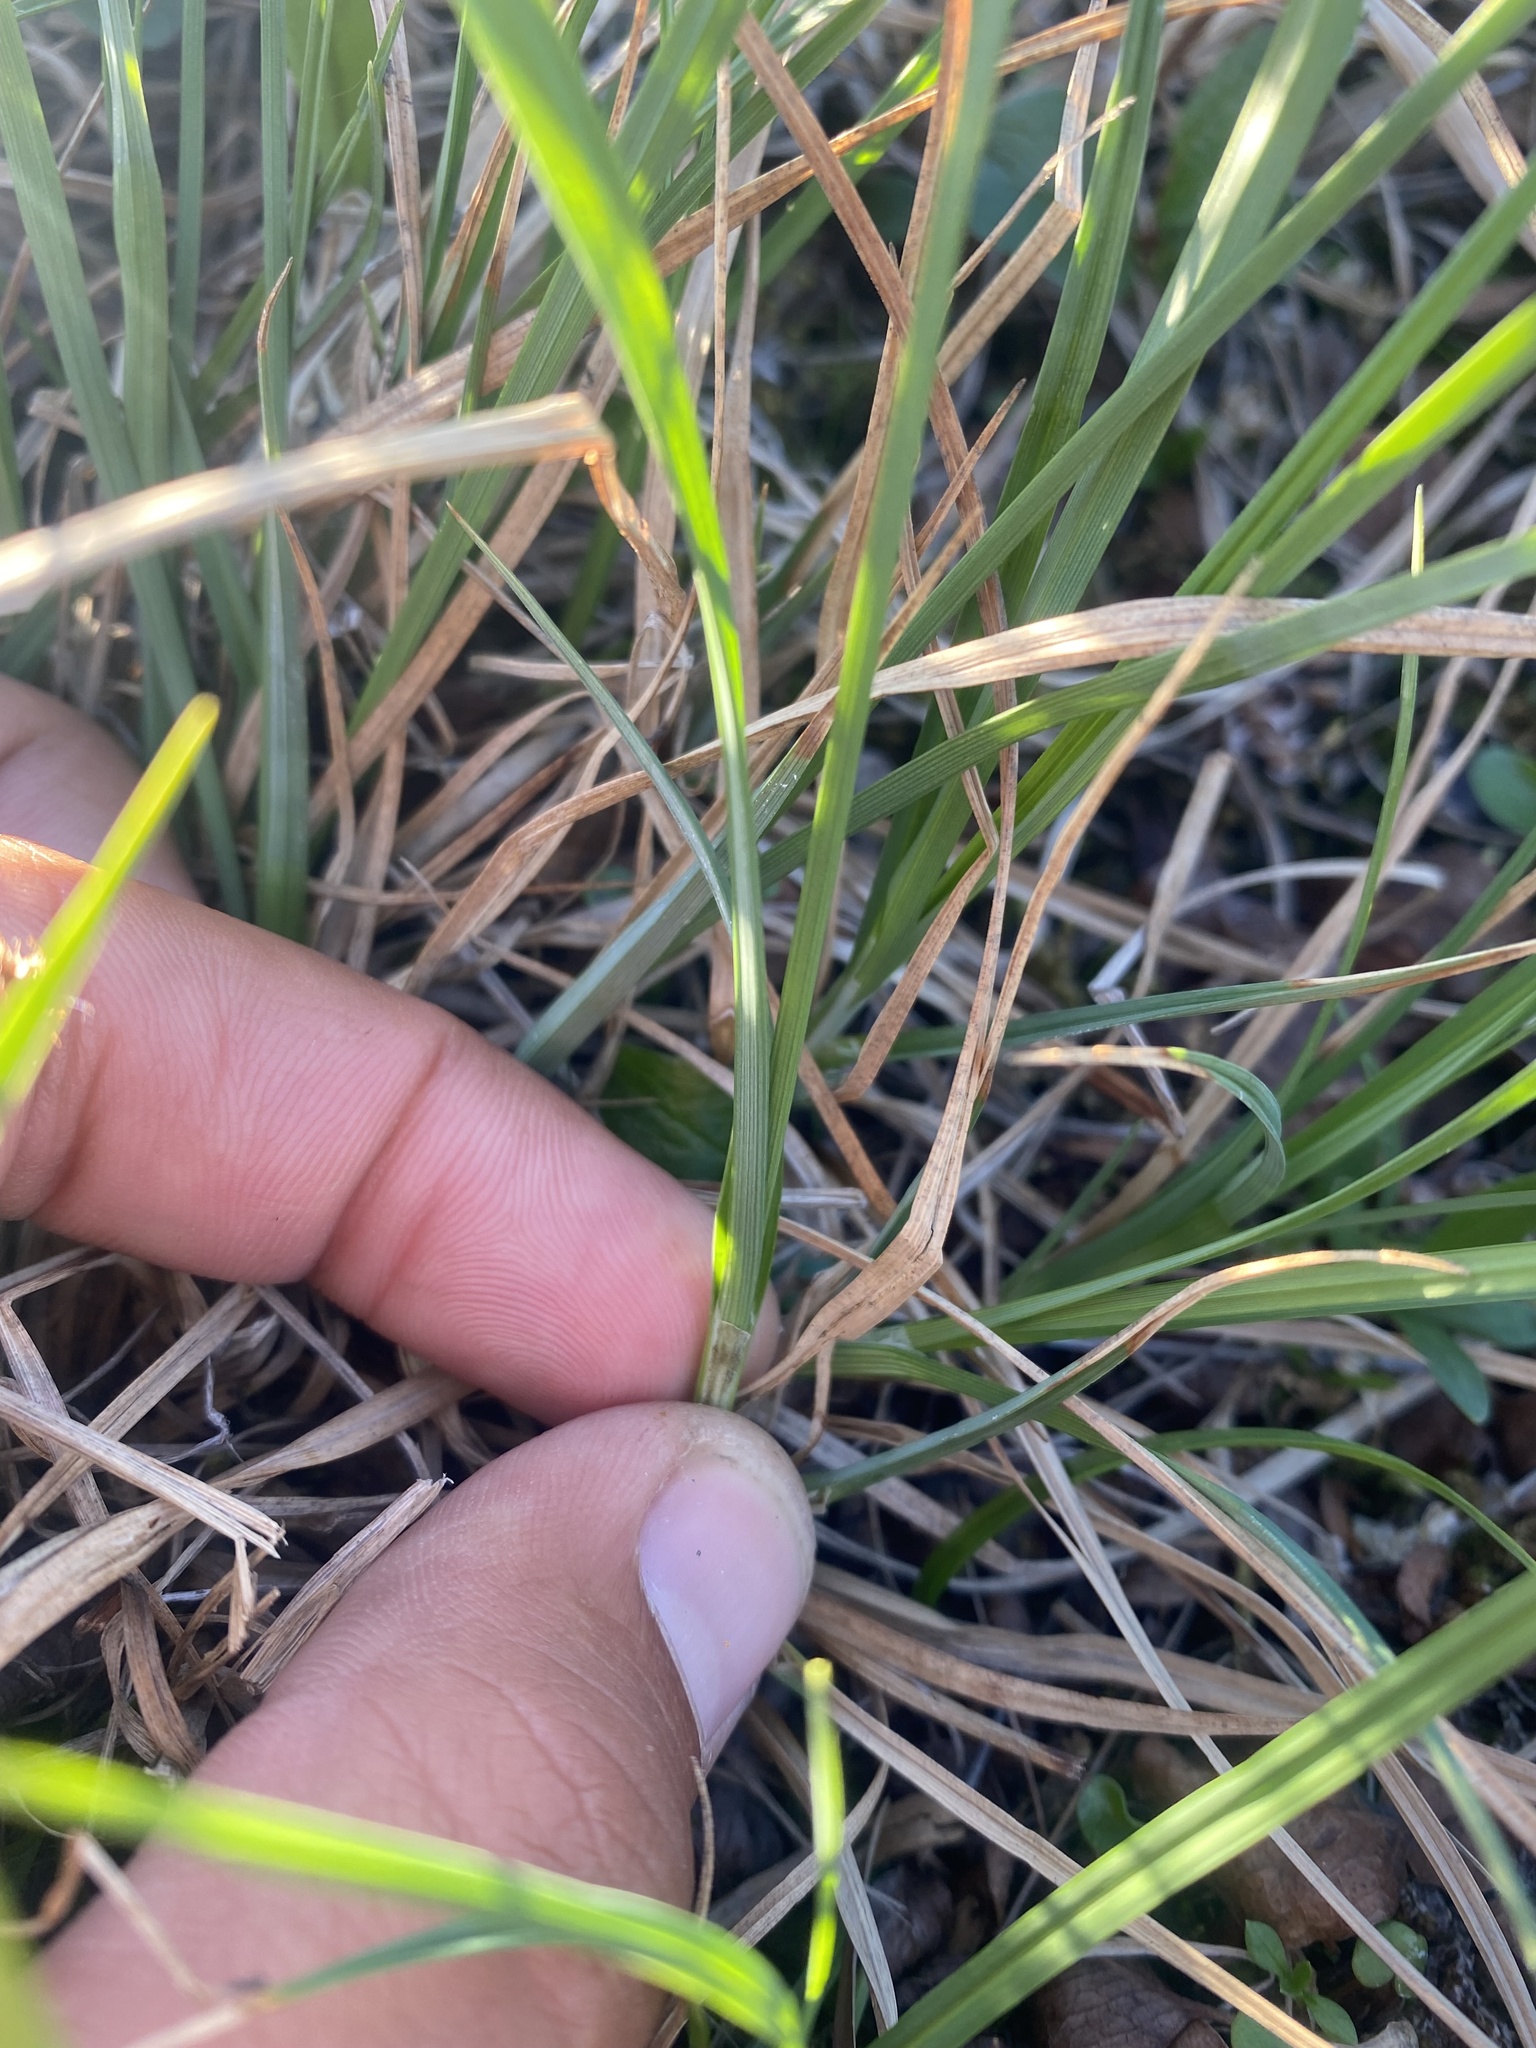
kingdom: Plantae
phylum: Tracheophyta
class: Liliopsida
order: Poales
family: Cyperaceae
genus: Carex
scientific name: Carex bigelowii
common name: Stiff sedge
